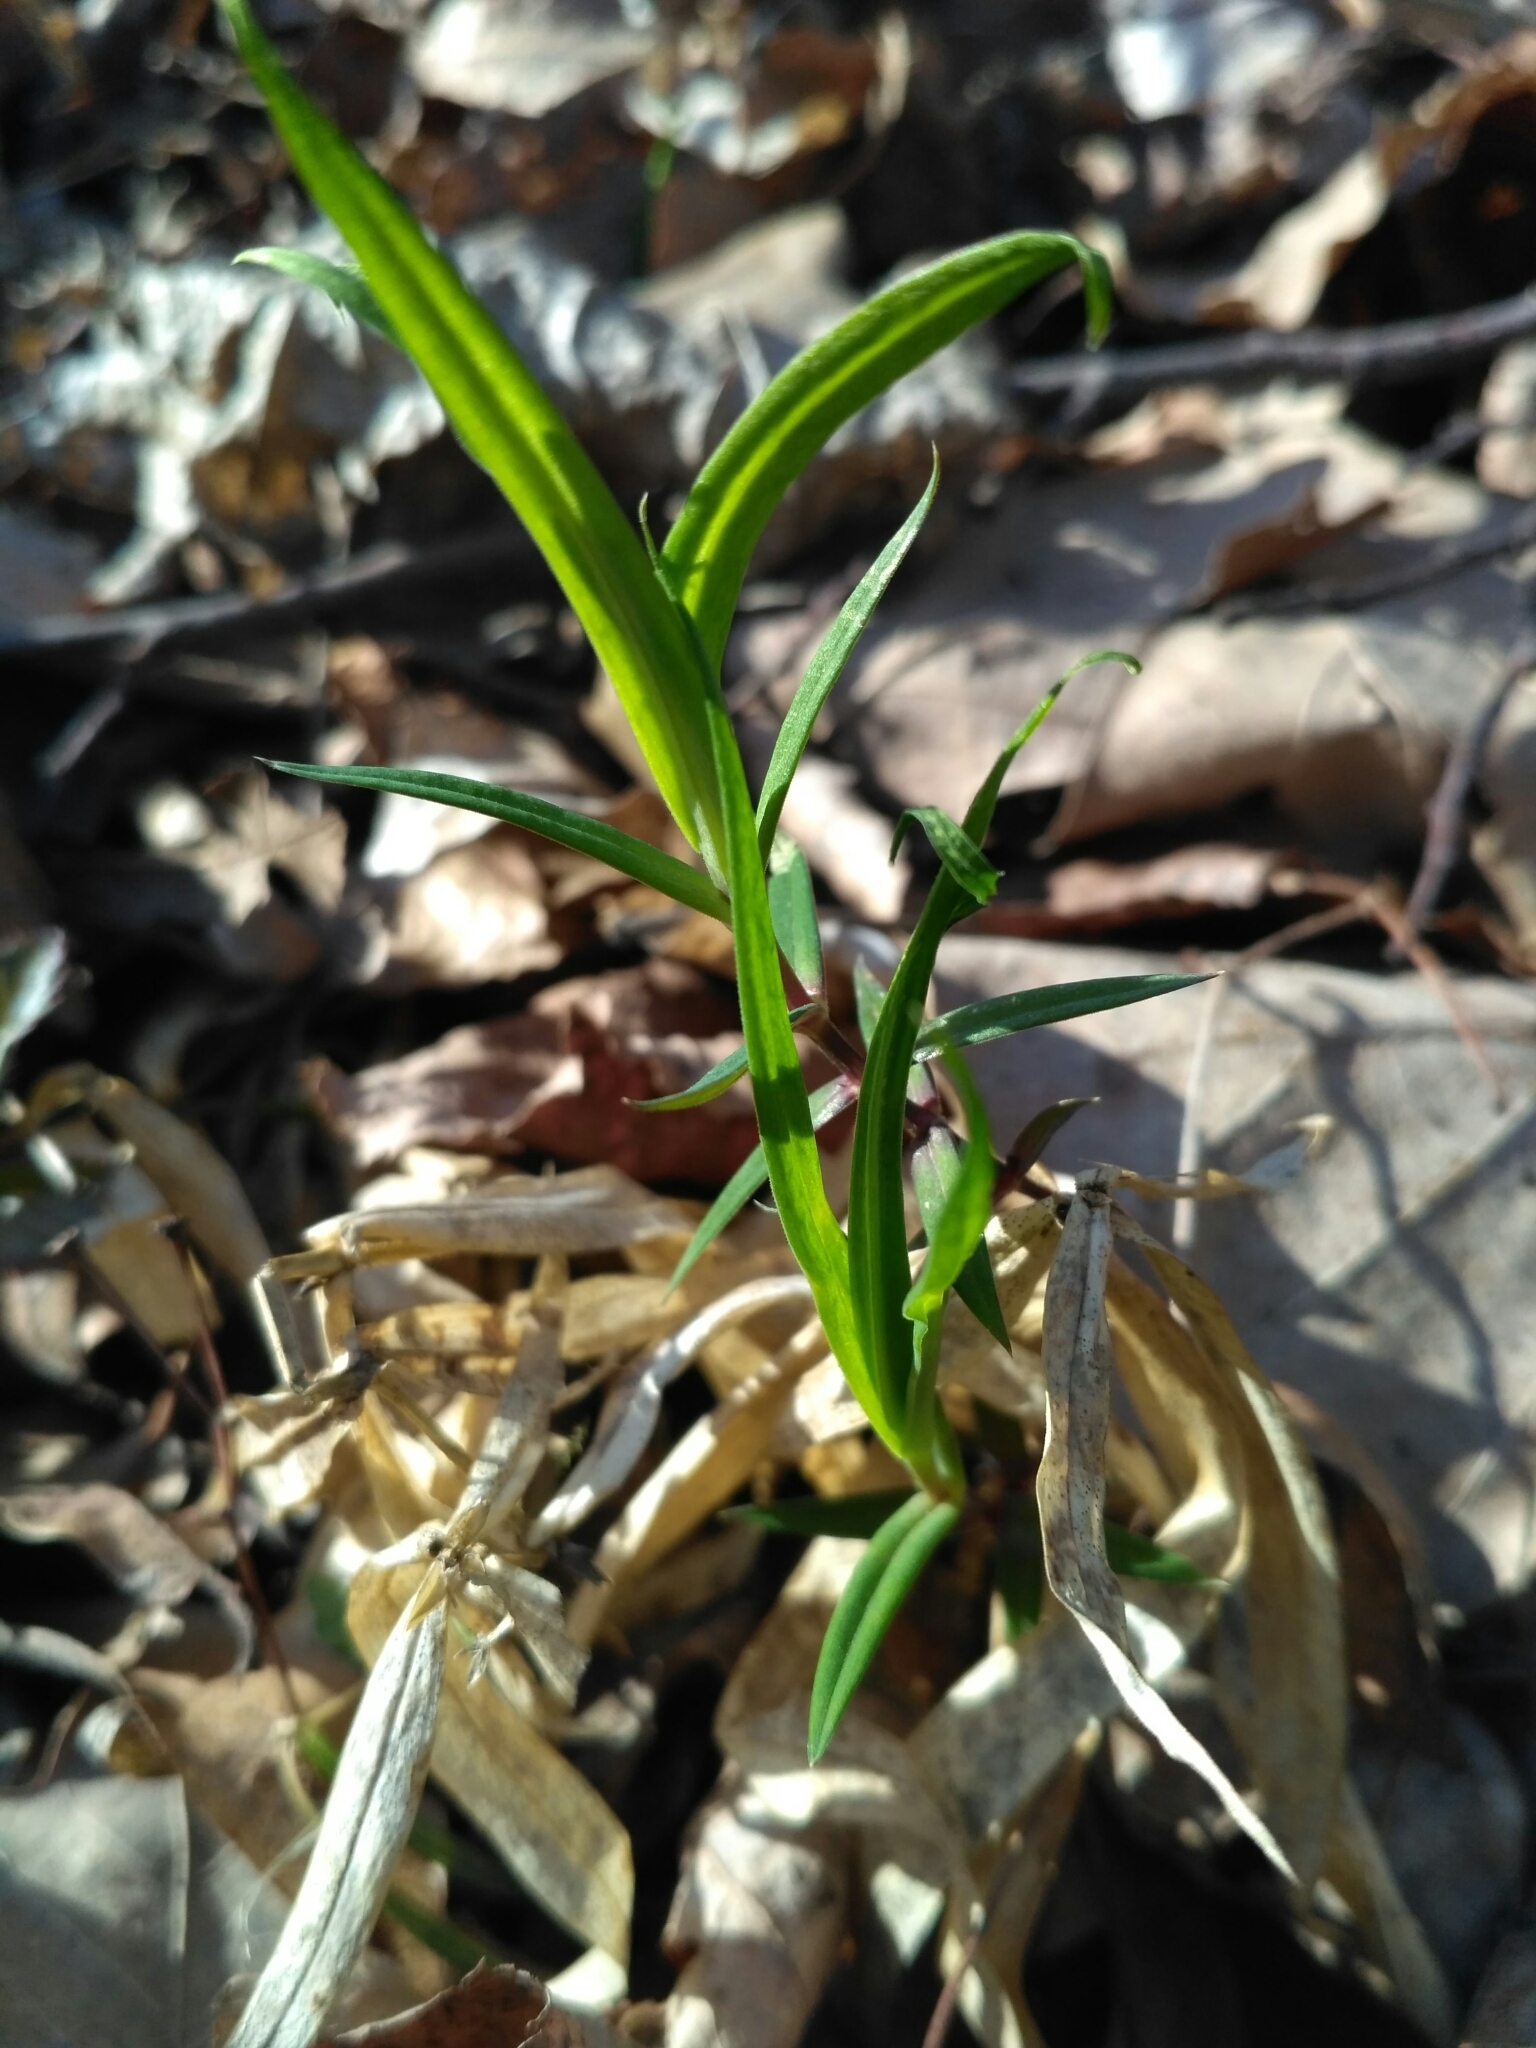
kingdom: Plantae
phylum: Tracheophyta
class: Magnoliopsida
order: Caryophyllales
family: Caryophyllaceae
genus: Rabelera
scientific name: Rabelera holostea
